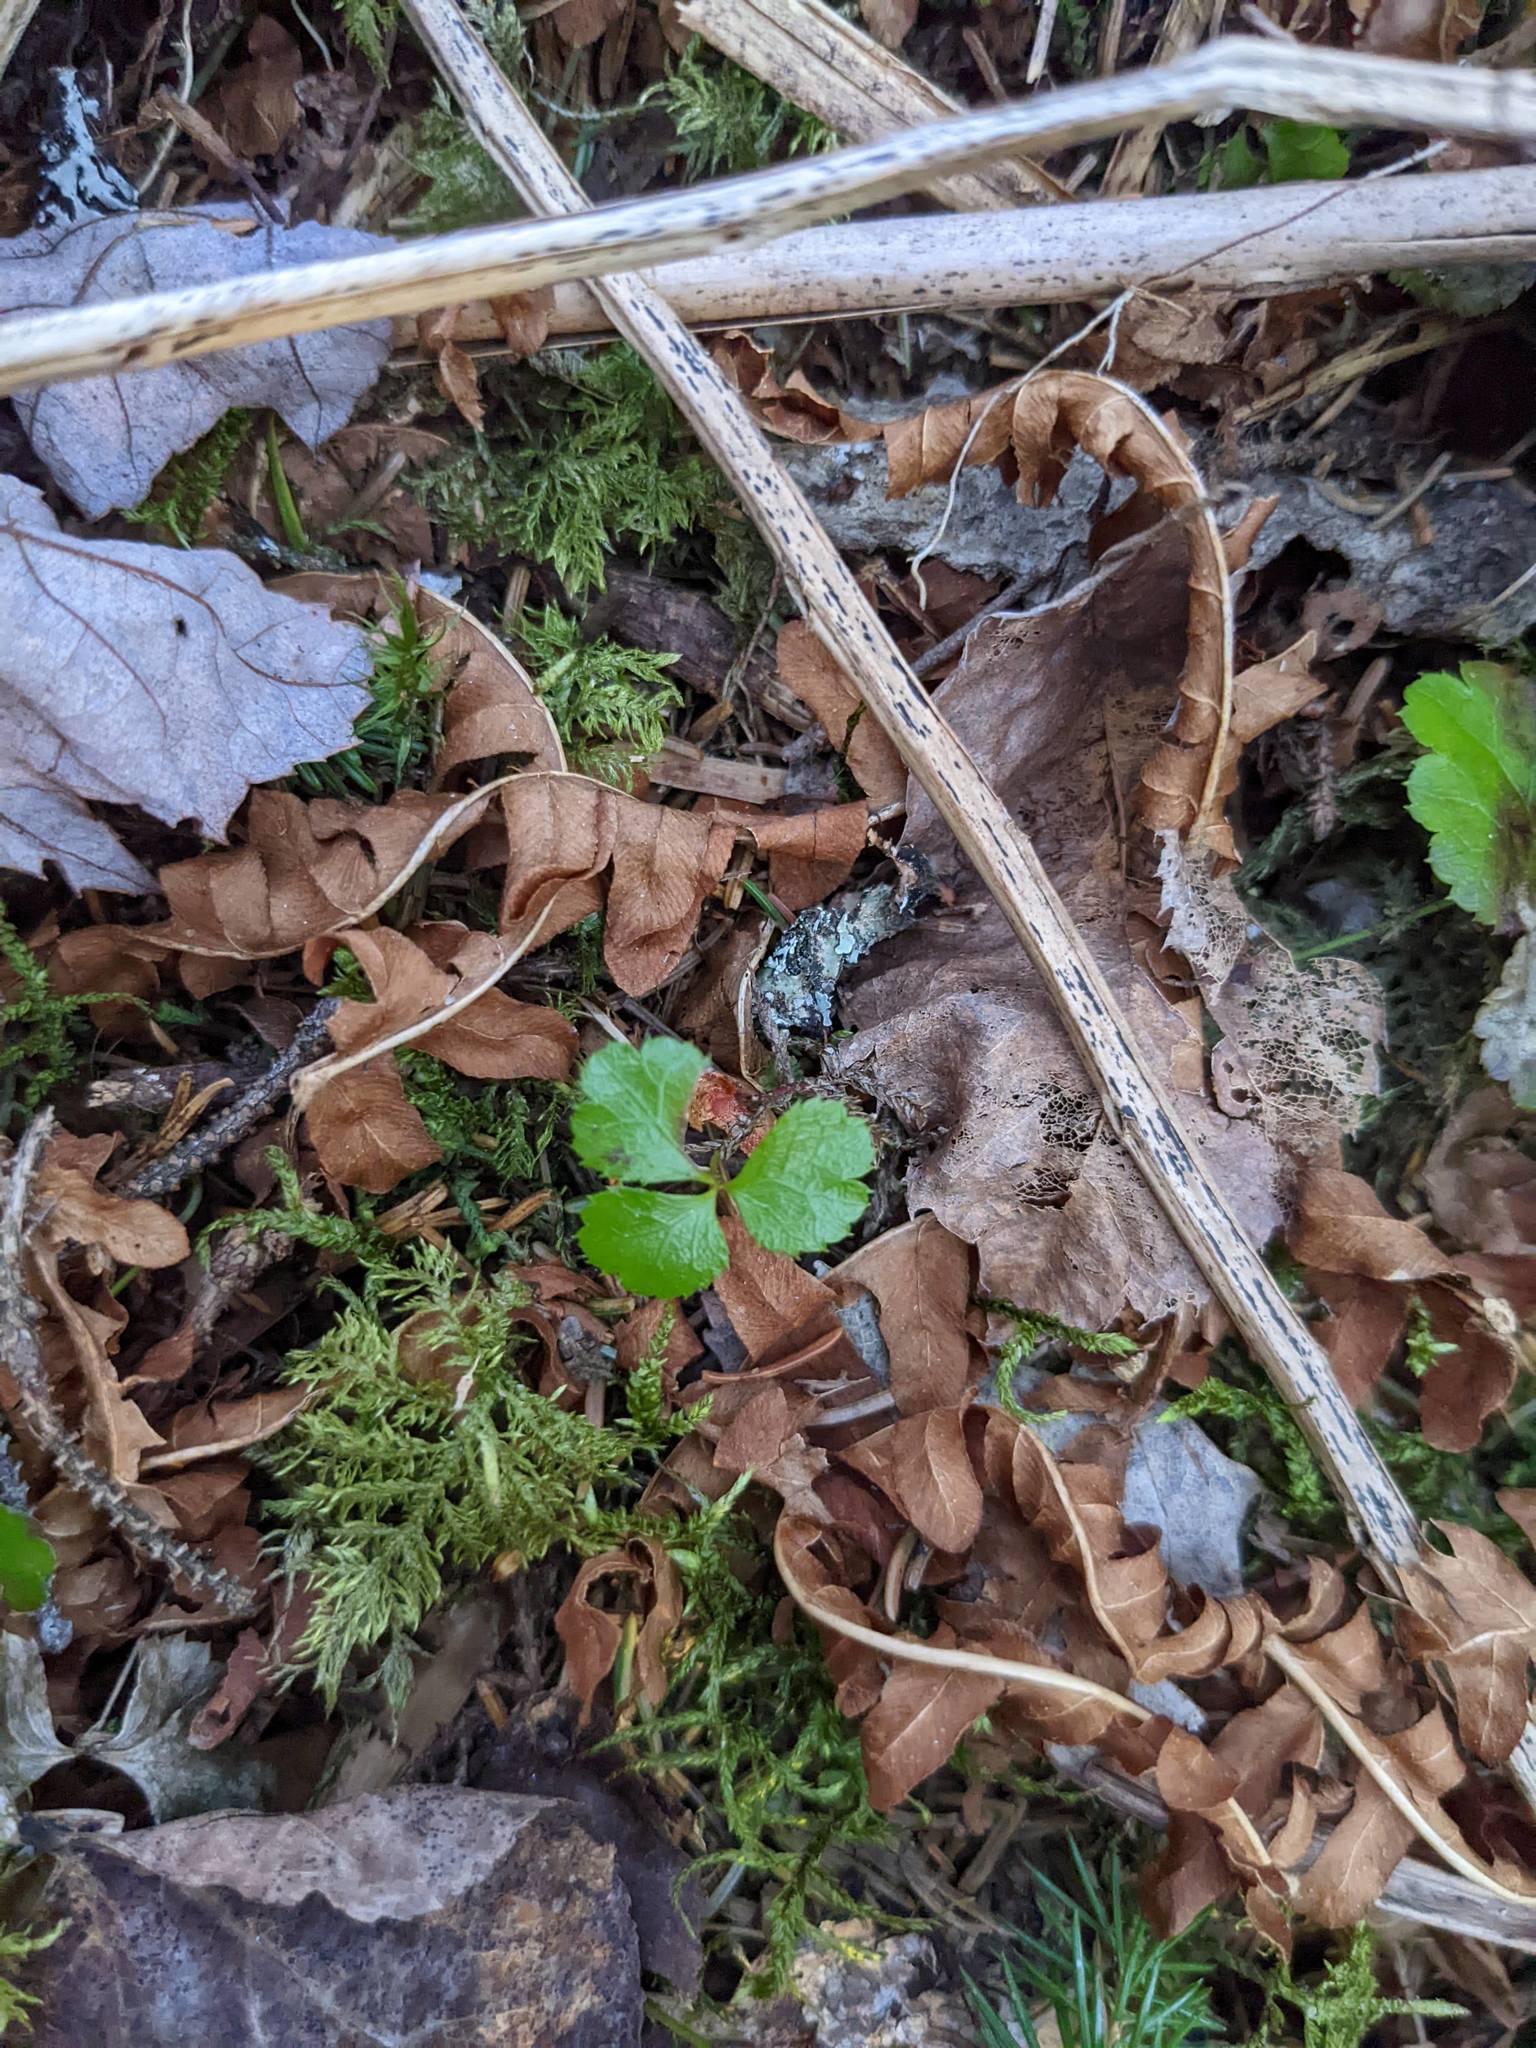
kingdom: Plantae
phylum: Tracheophyta
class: Magnoliopsida
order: Ranunculales
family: Ranunculaceae
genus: Coptis
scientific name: Coptis trifolia
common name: Canker-root
